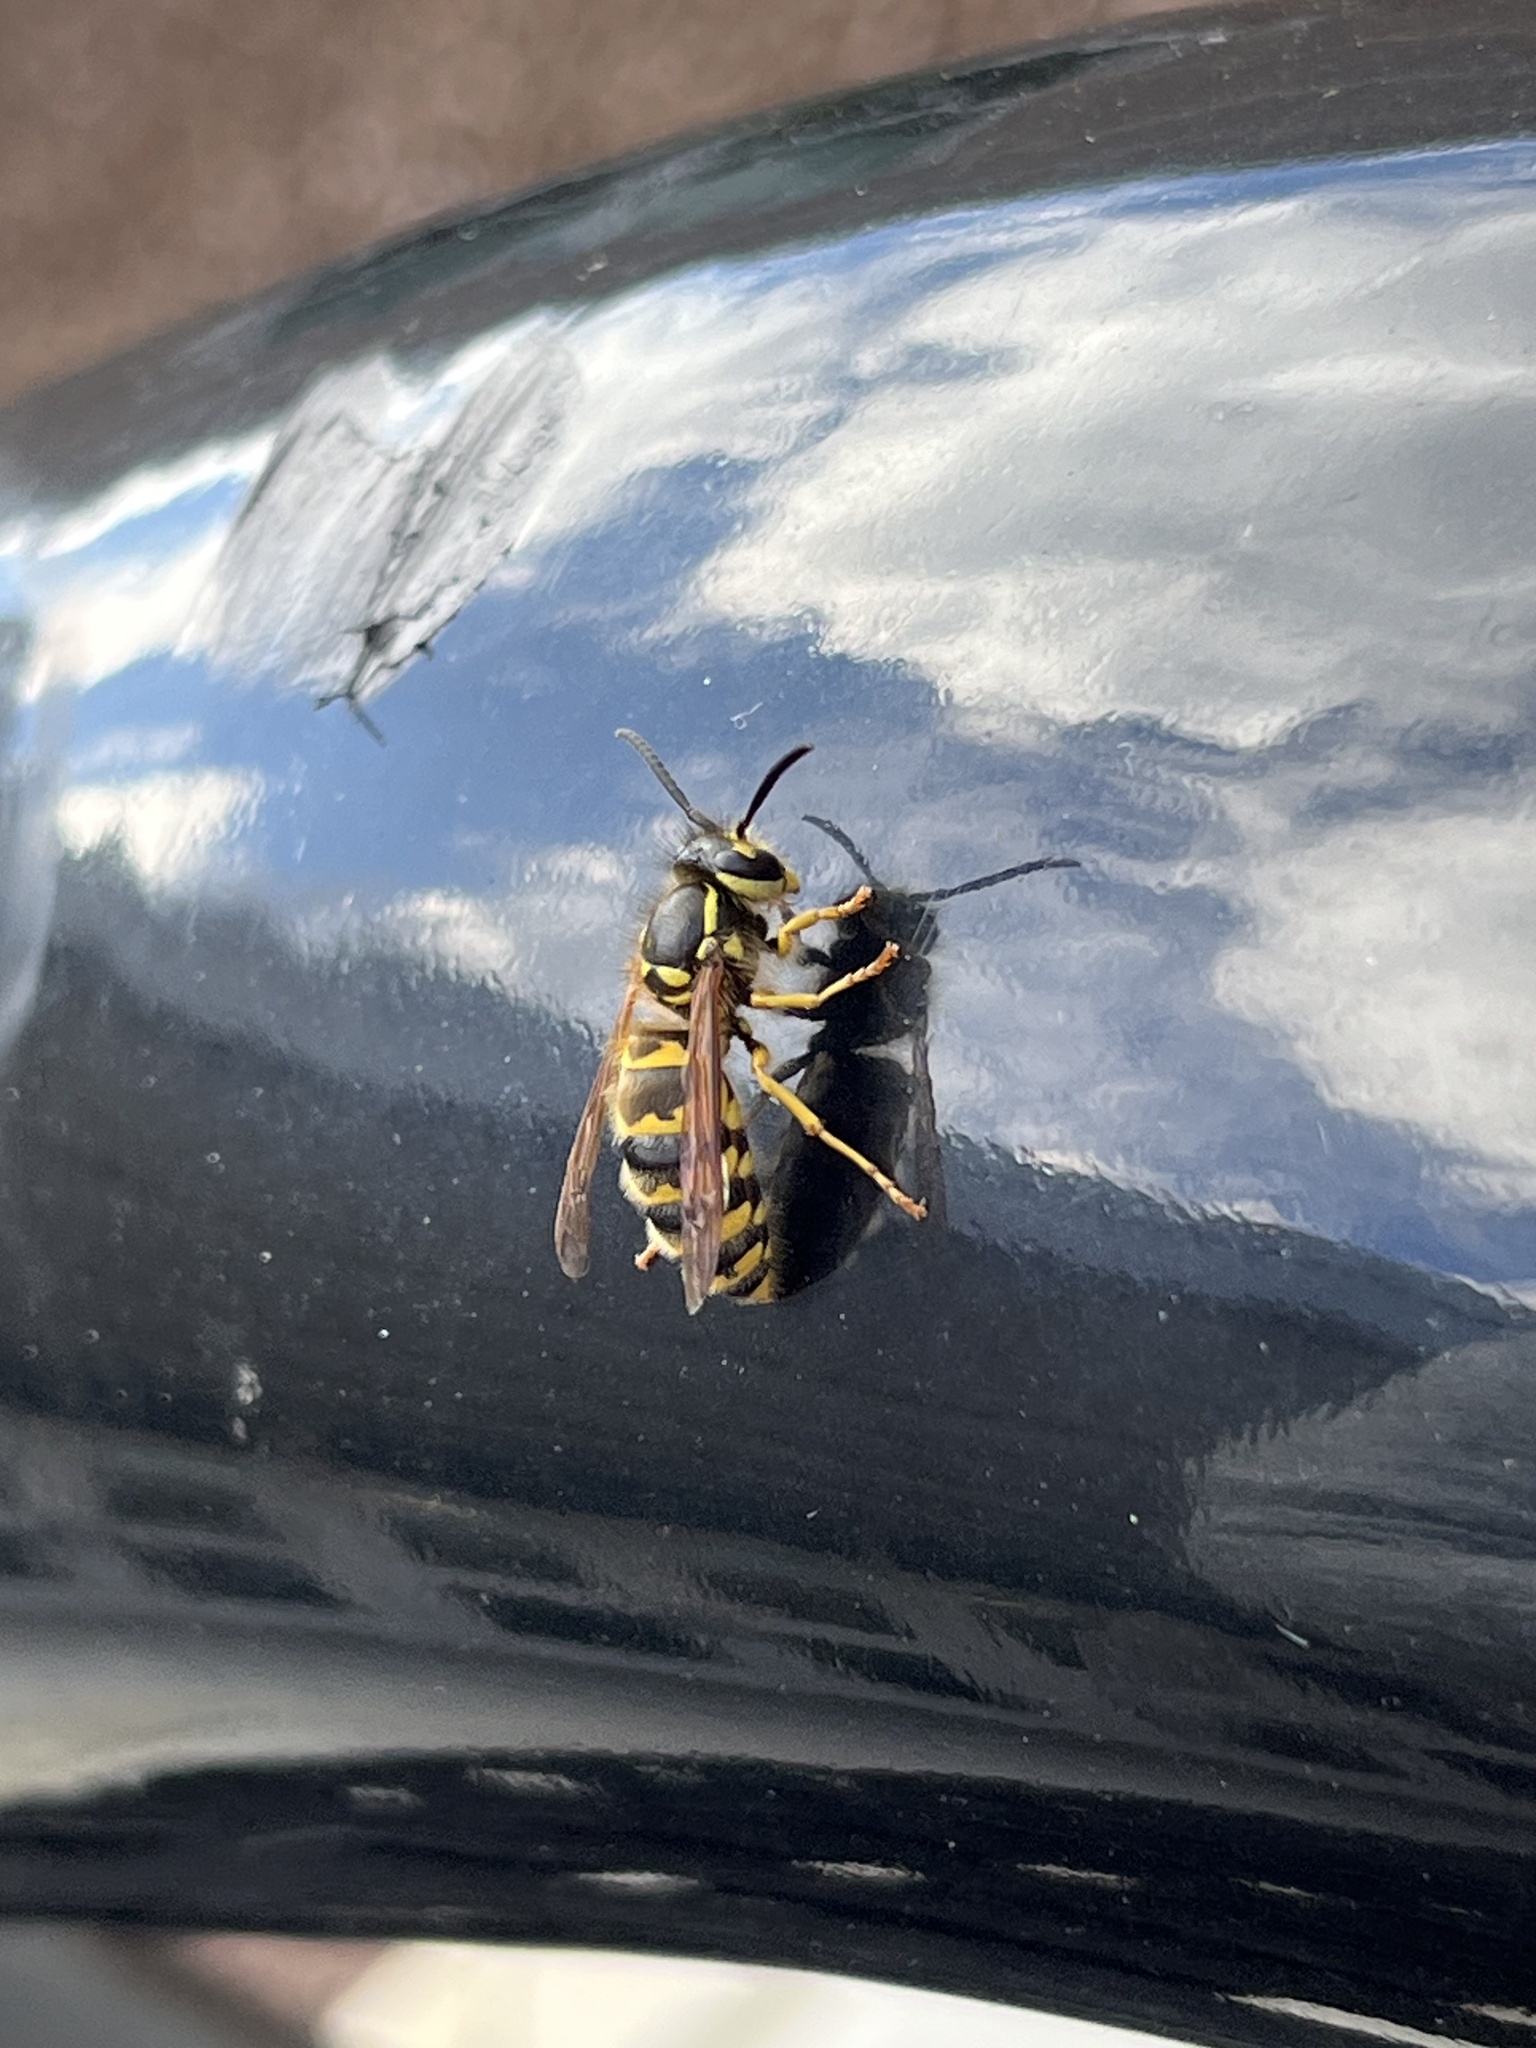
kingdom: Animalia
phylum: Arthropoda
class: Insecta
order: Hymenoptera
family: Vespidae
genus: Vespula
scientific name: Vespula flavopilosa
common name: Downy yellowjacket
